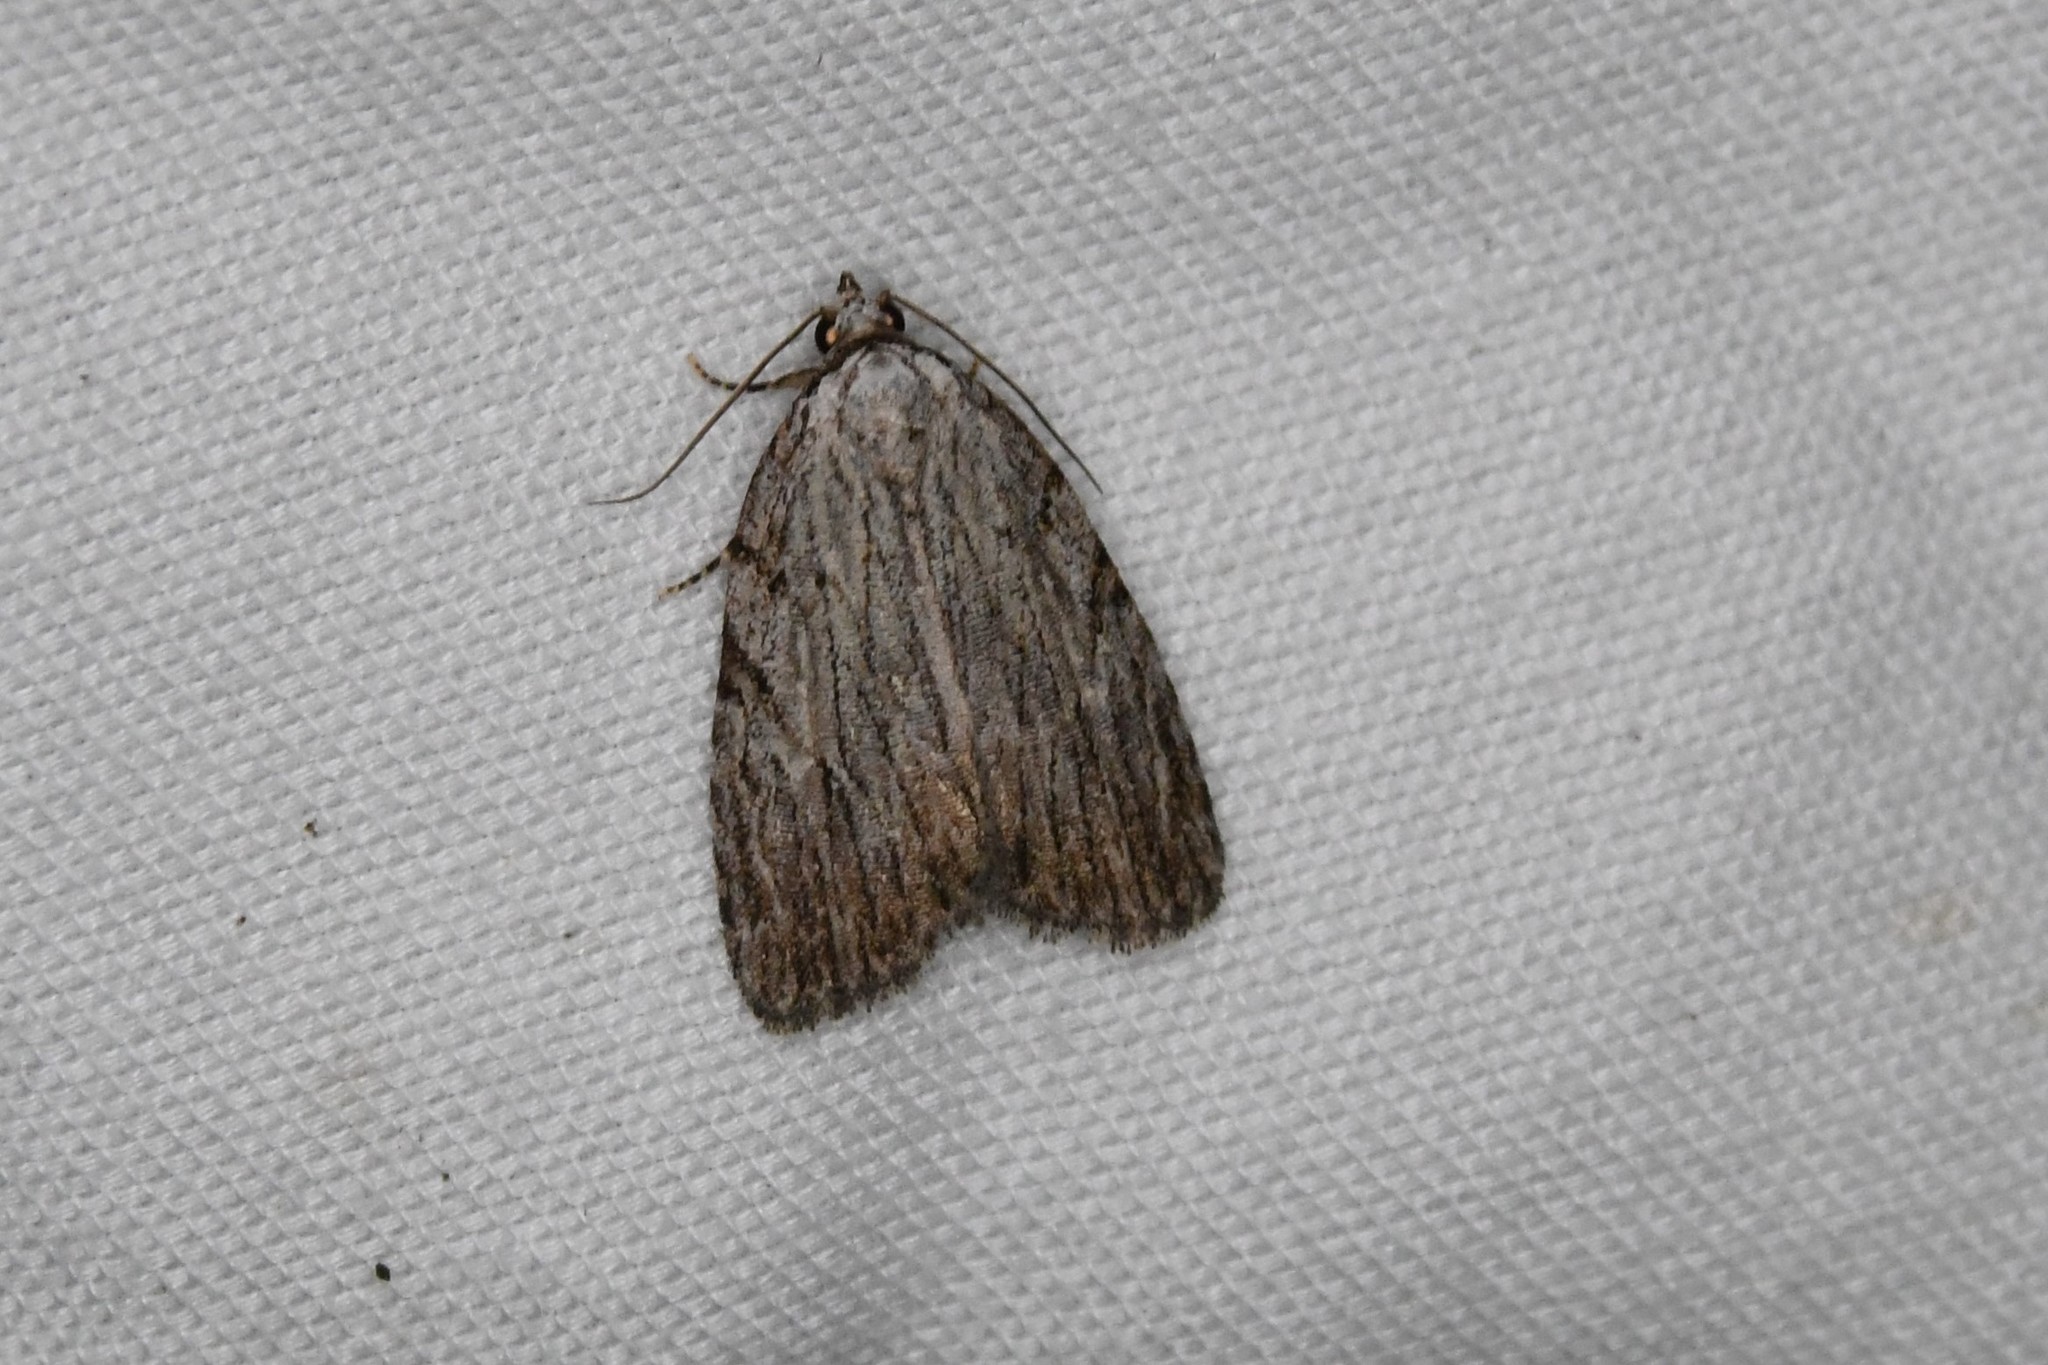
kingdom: Animalia
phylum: Arthropoda
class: Insecta
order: Lepidoptera
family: Noctuidae
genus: Balsa
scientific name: Balsa tristrigella
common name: Three-lined balsa moth
